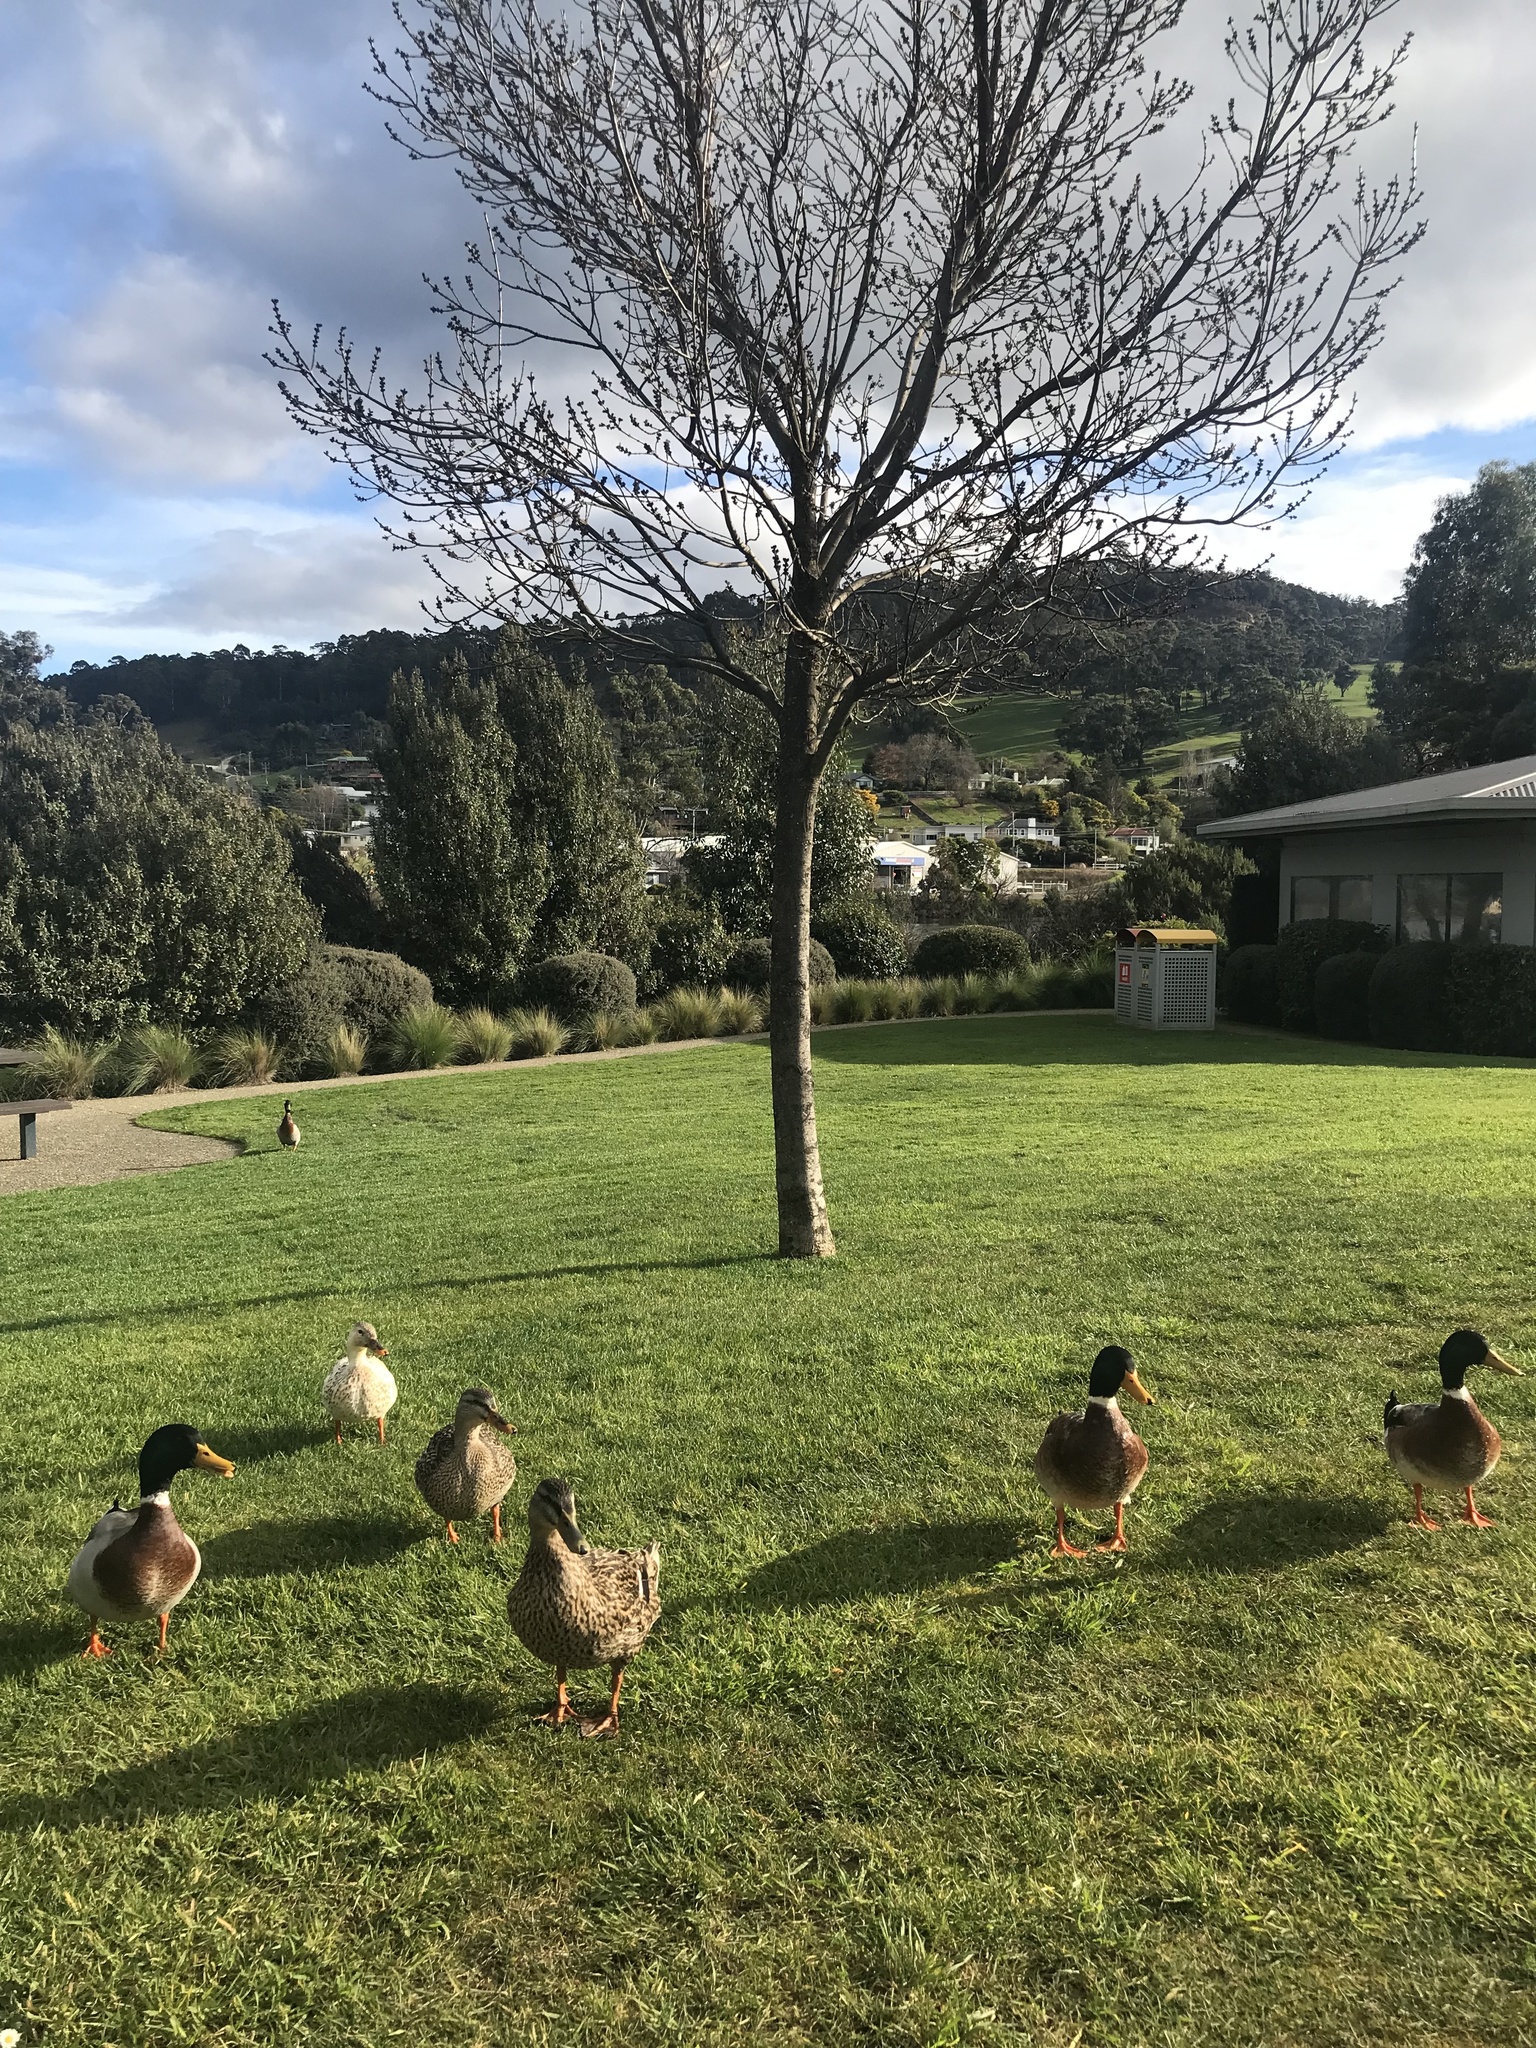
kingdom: Animalia
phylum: Chordata
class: Aves
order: Anseriformes
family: Anatidae
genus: Anas
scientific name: Anas platyrhynchos
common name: Mallard
